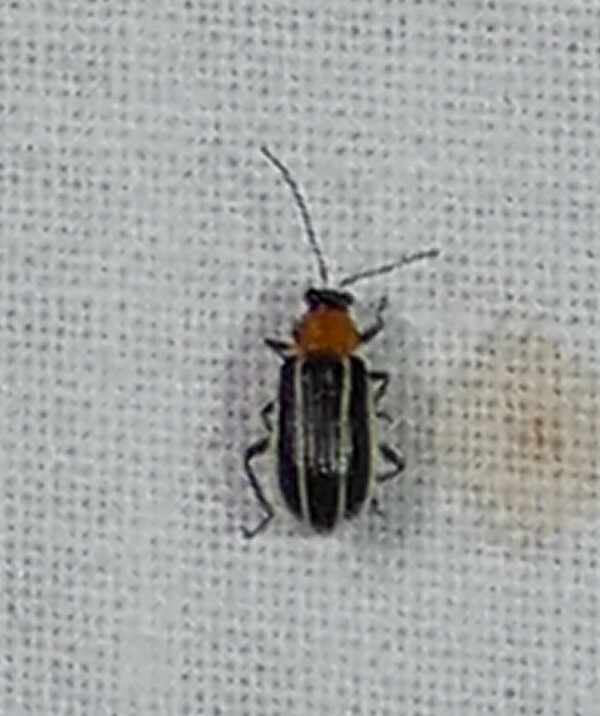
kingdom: Animalia
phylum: Arthropoda
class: Insecta
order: Coleoptera
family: Chrysomelidae
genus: Acalymma
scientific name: Acalymma vinctum
